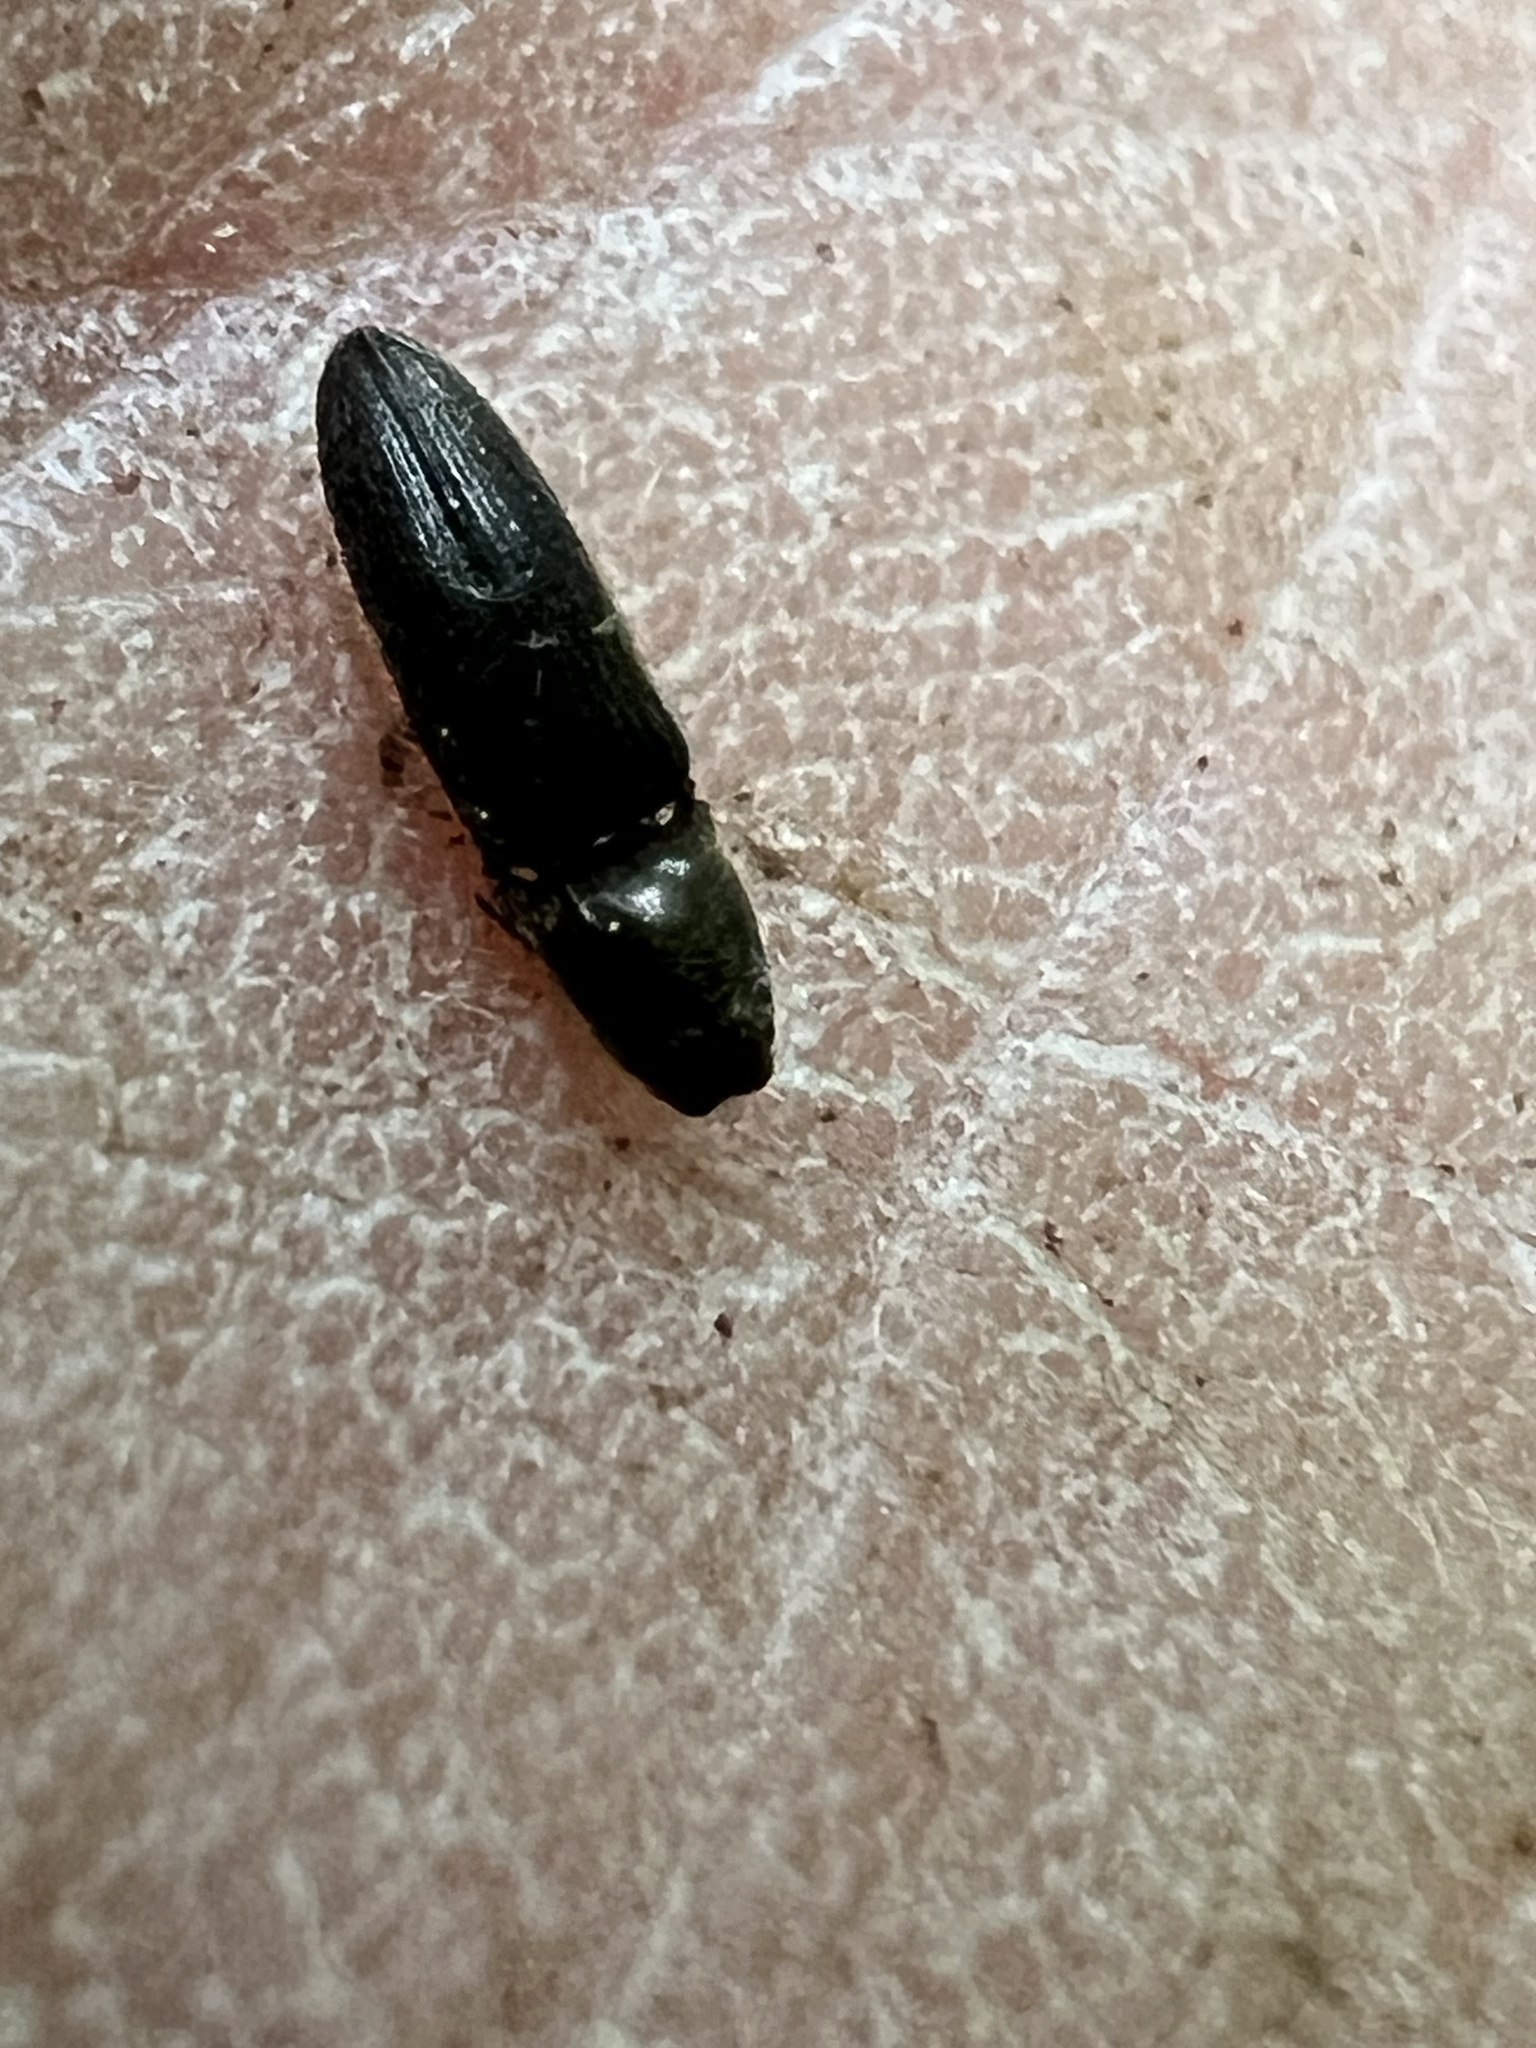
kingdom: Animalia
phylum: Arthropoda
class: Insecta
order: Coleoptera
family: Elateridae
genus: Limonius
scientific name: Limonius quercinus
